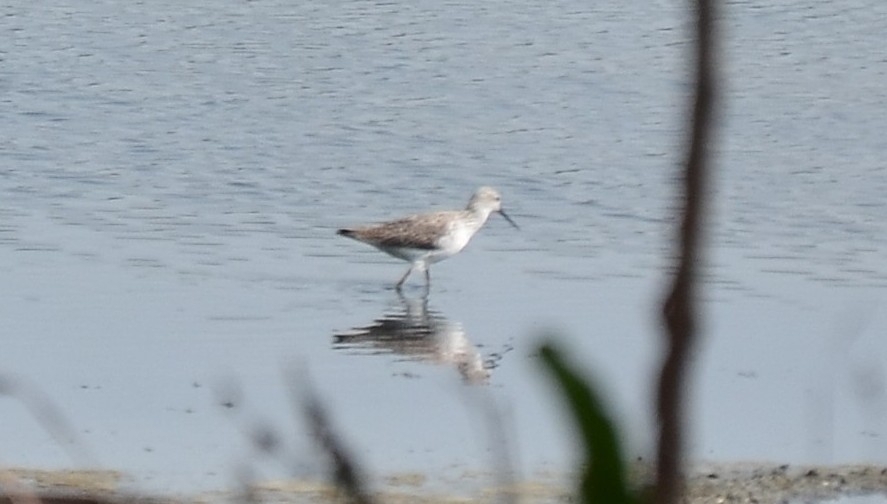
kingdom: Animalia
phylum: Chordata
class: Aves
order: Charadriiformes
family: Scolopacidae
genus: Tringa
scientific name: Tringa stagnatilis
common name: Marsh sandpiper
